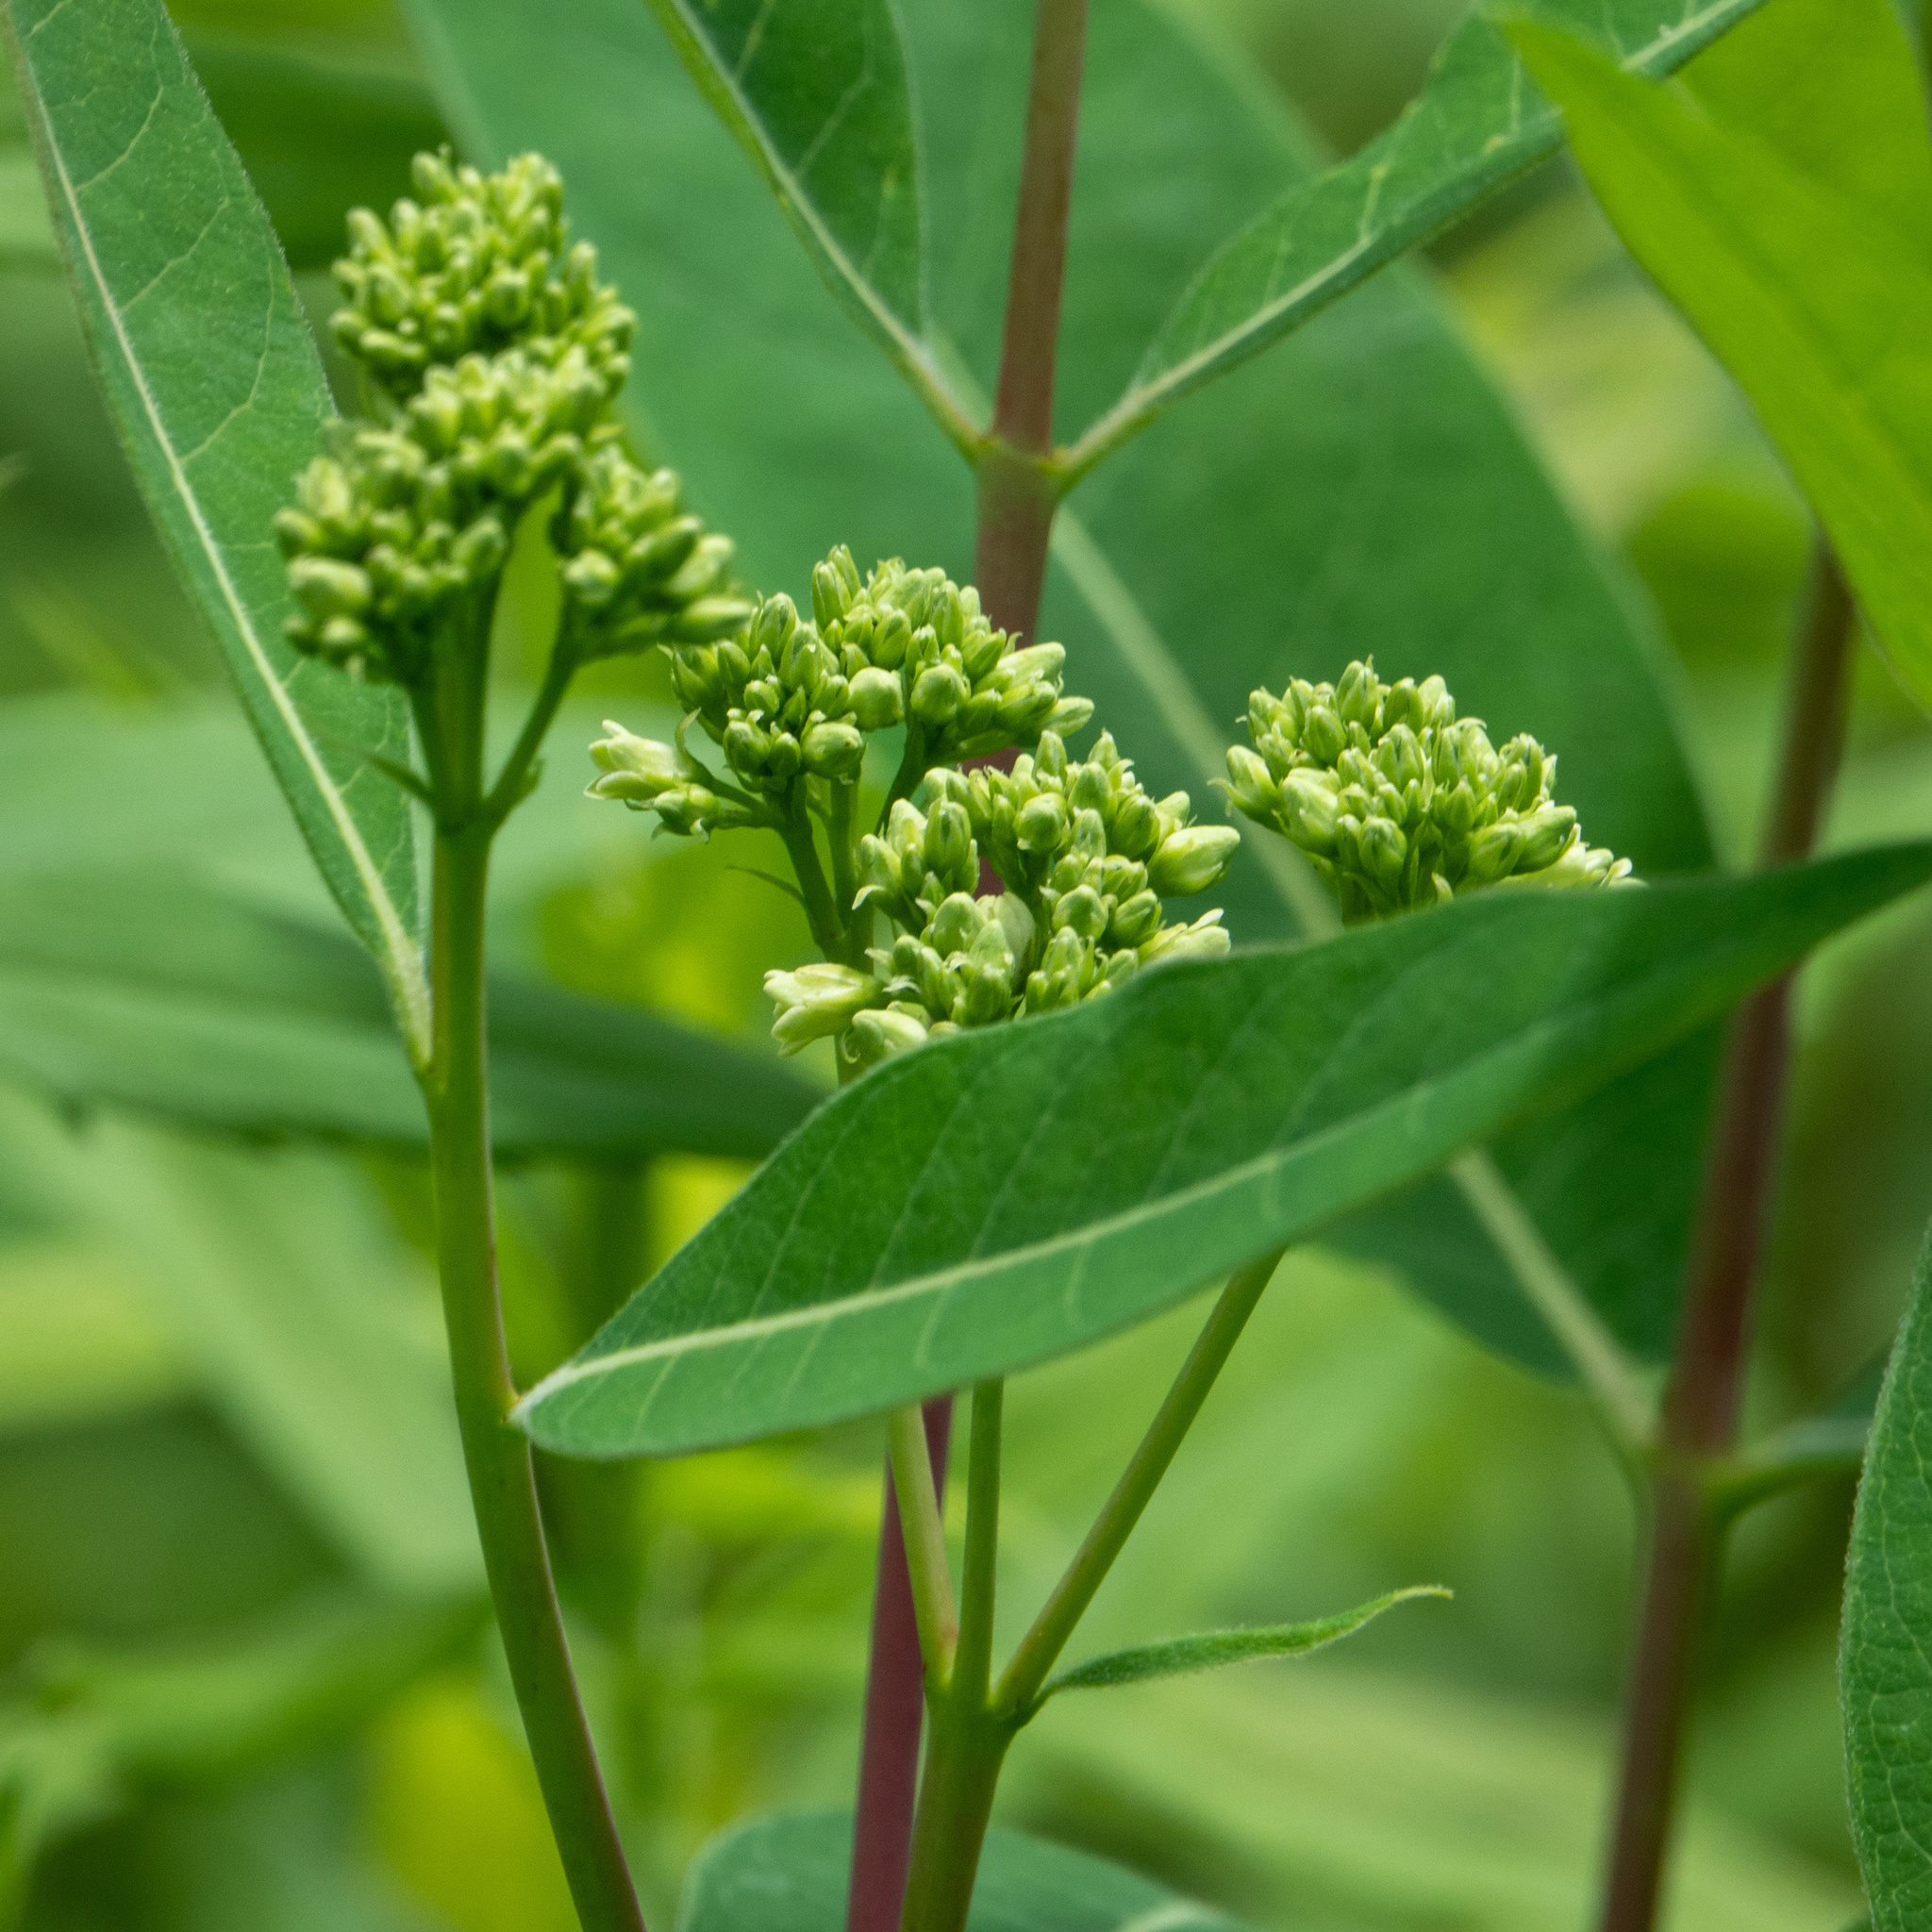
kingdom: Plantae
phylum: Tracheophyta
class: Magnoliopsida
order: Gentianales
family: Apocynaceae
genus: Apocynum
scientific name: Apocynum cannabinum
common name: Hemp dogbane
